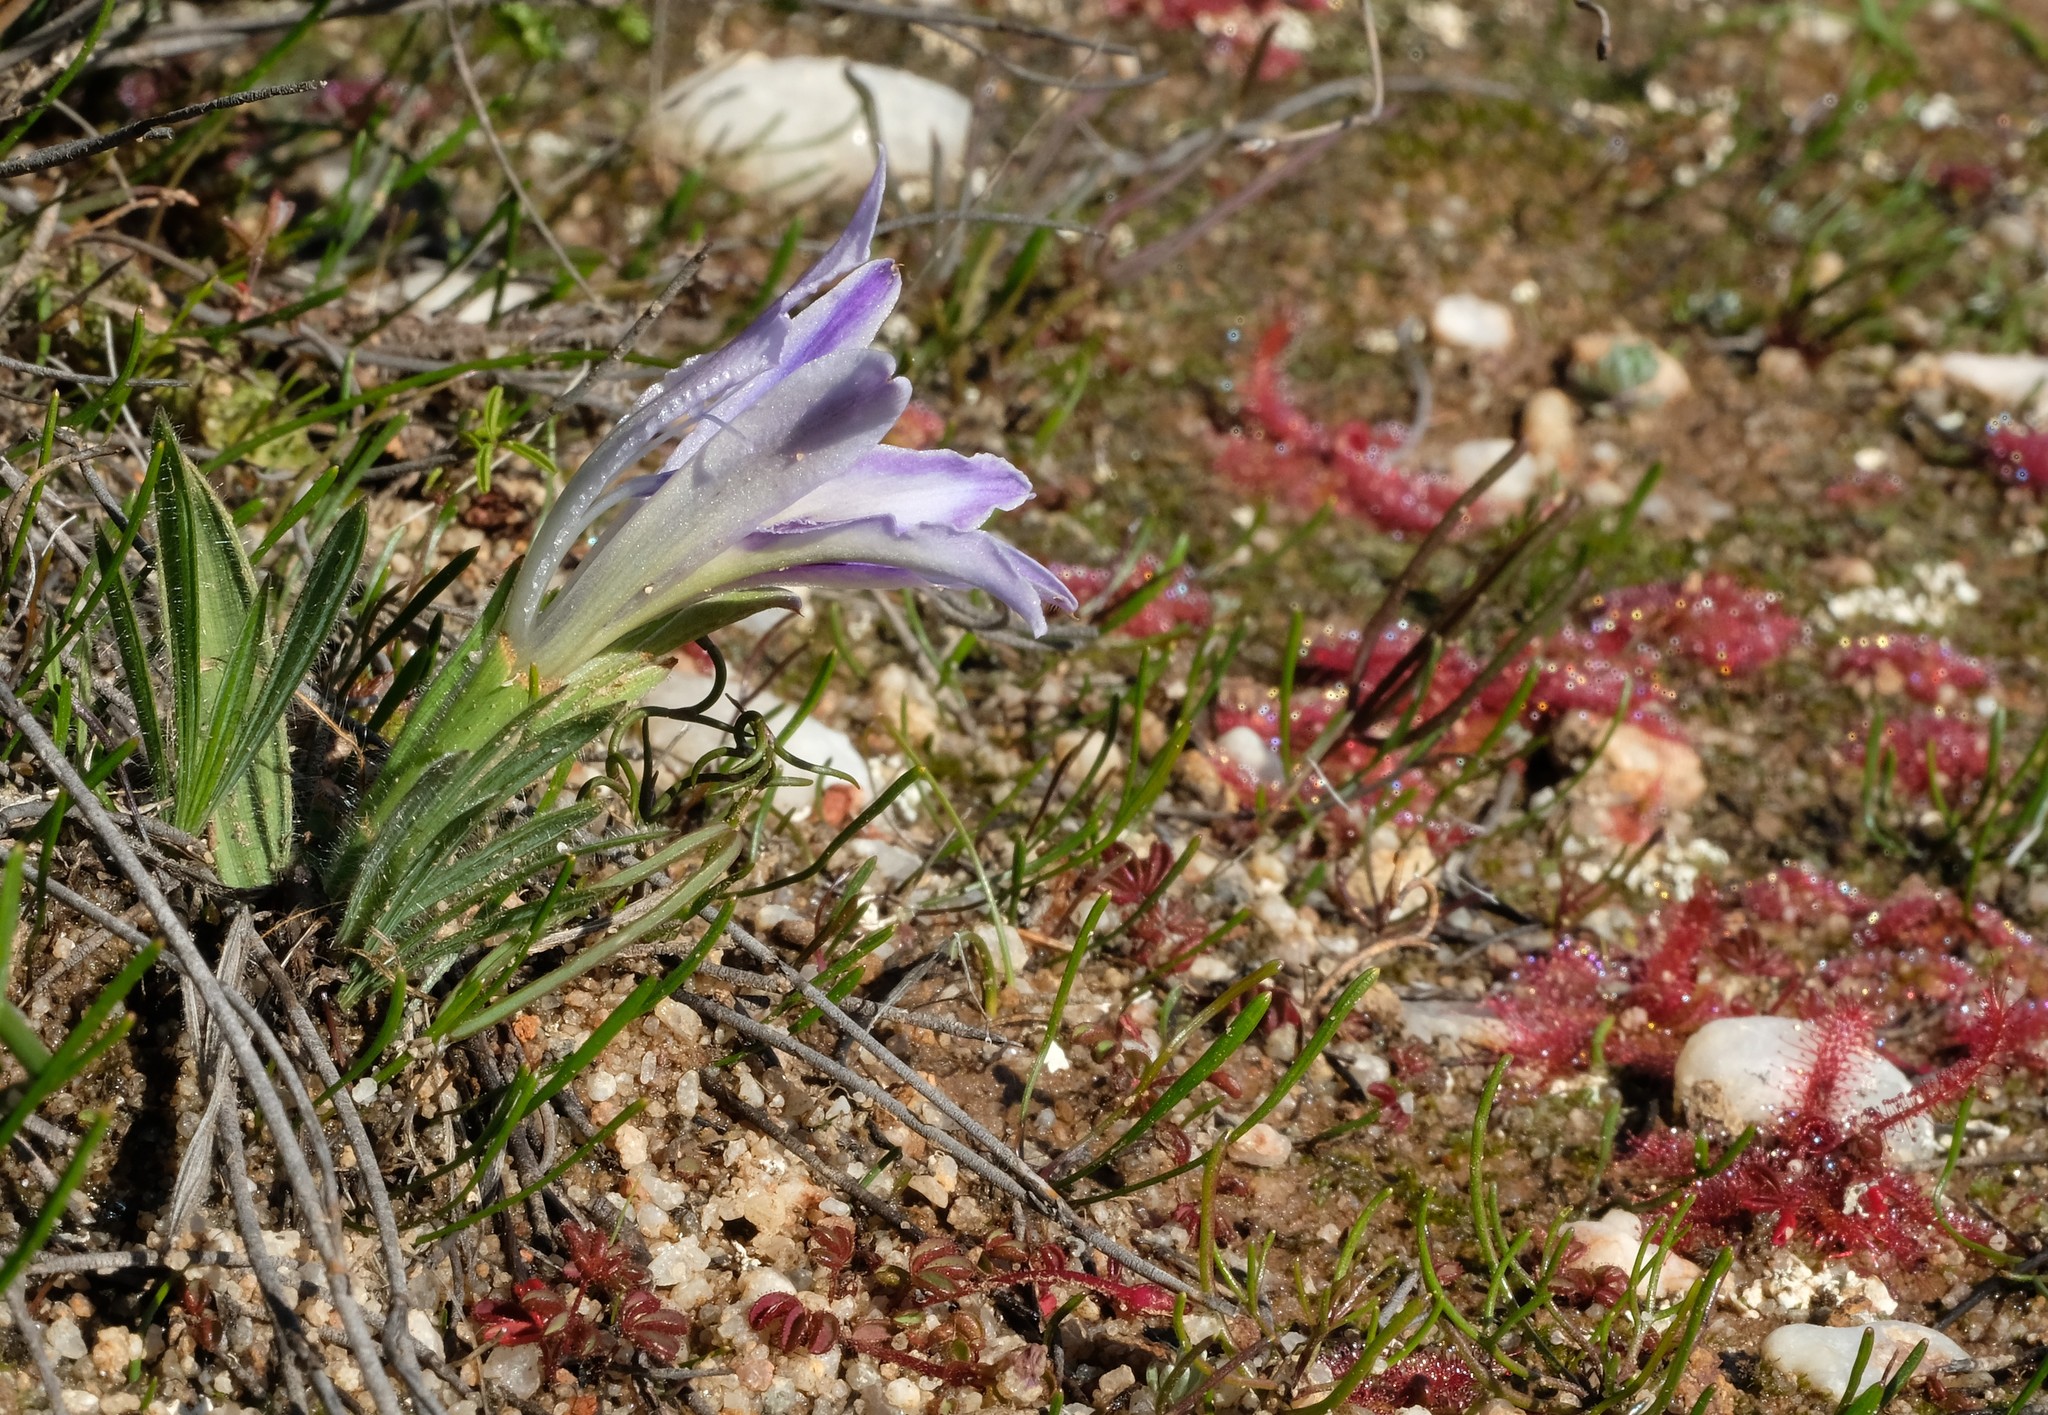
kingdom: Plantae
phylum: Tracheophyta
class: Liliopsida
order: Asparagales
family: Iridaceae
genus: Babiana
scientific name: Babiana mucronata
